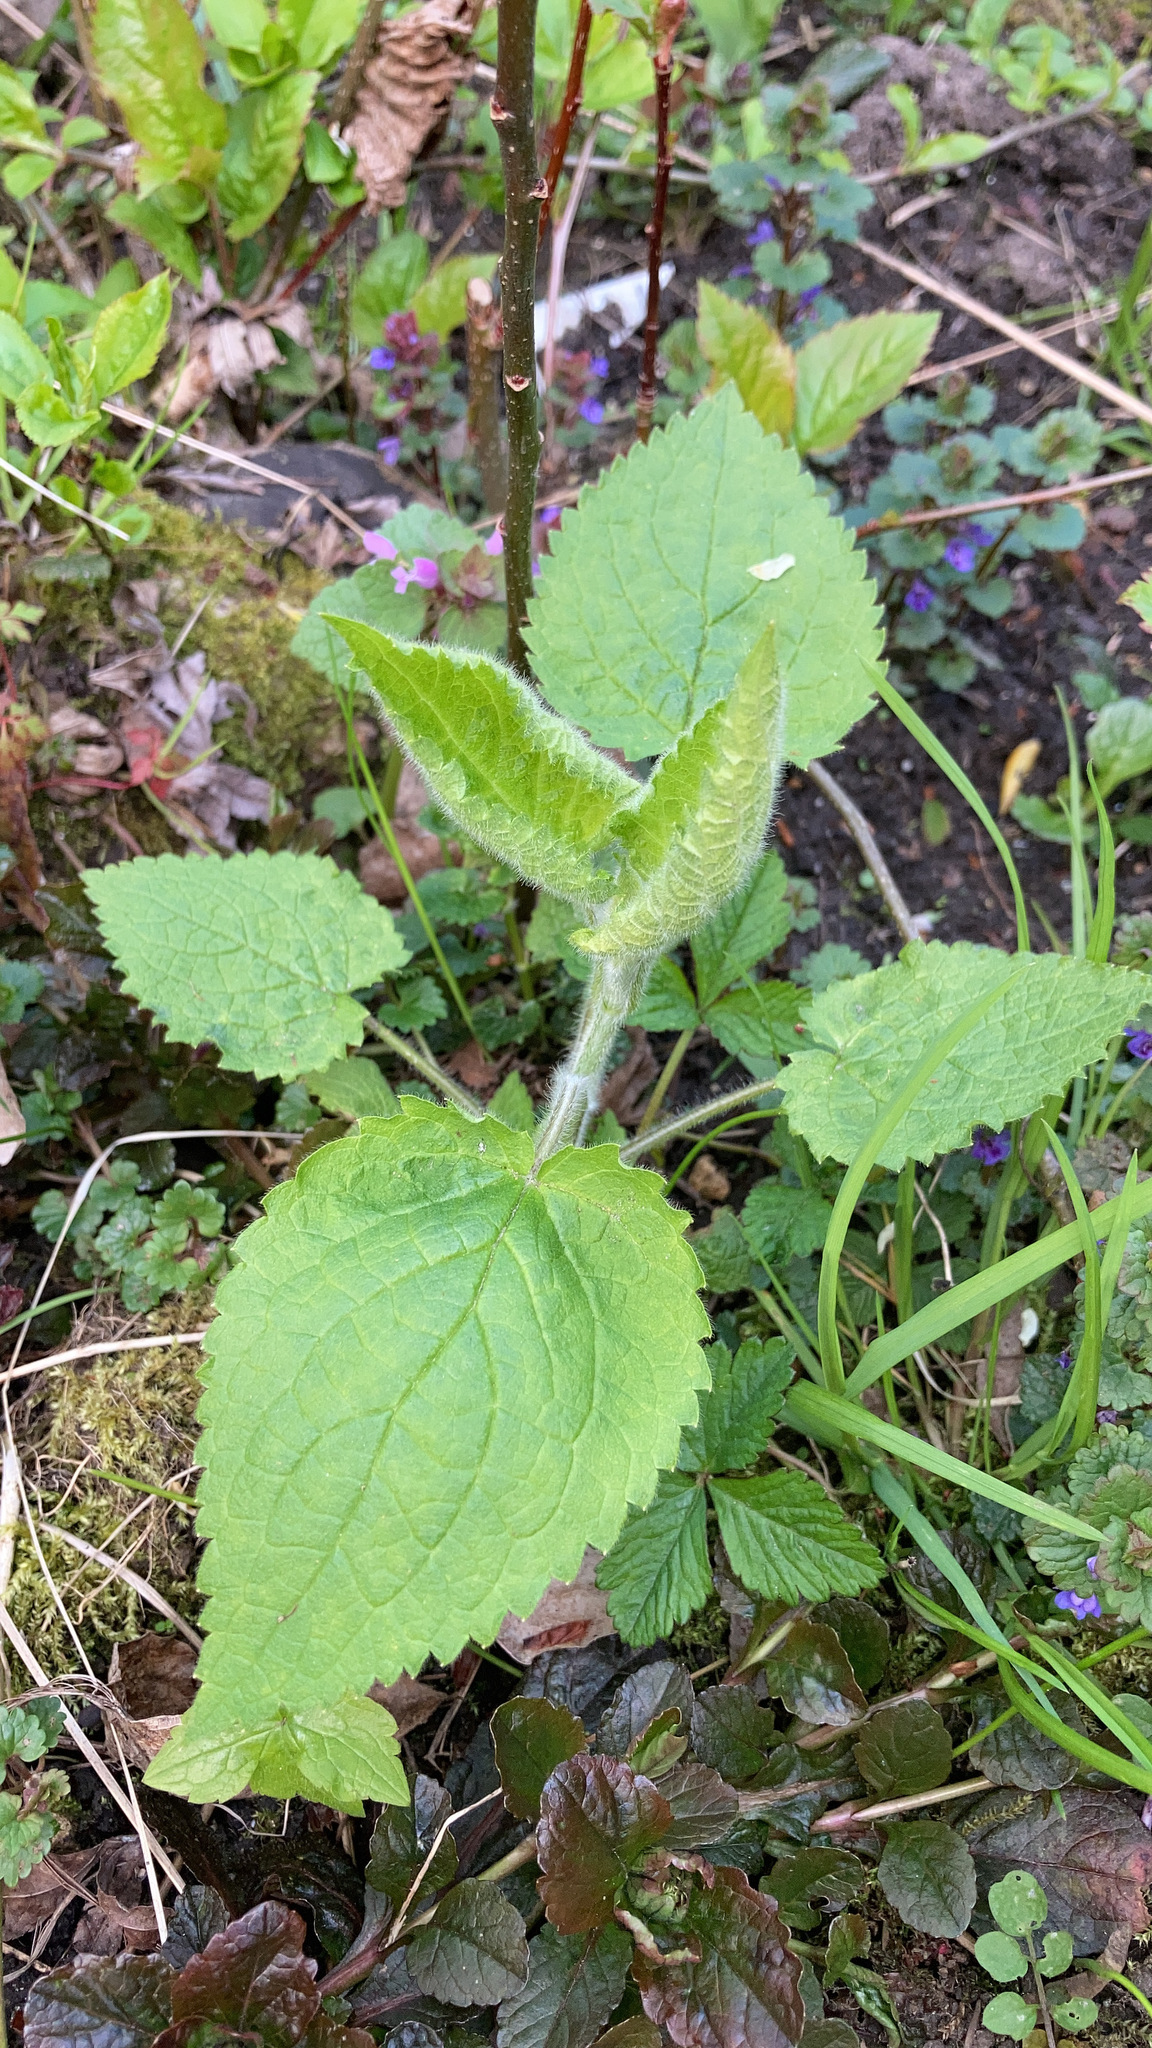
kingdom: Plantae
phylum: Tracheophyta
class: Magnoliopsida
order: Lamiales
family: Lamiaceae
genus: Stachys
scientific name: Stachys sylvatica
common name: Hedge woundwort
